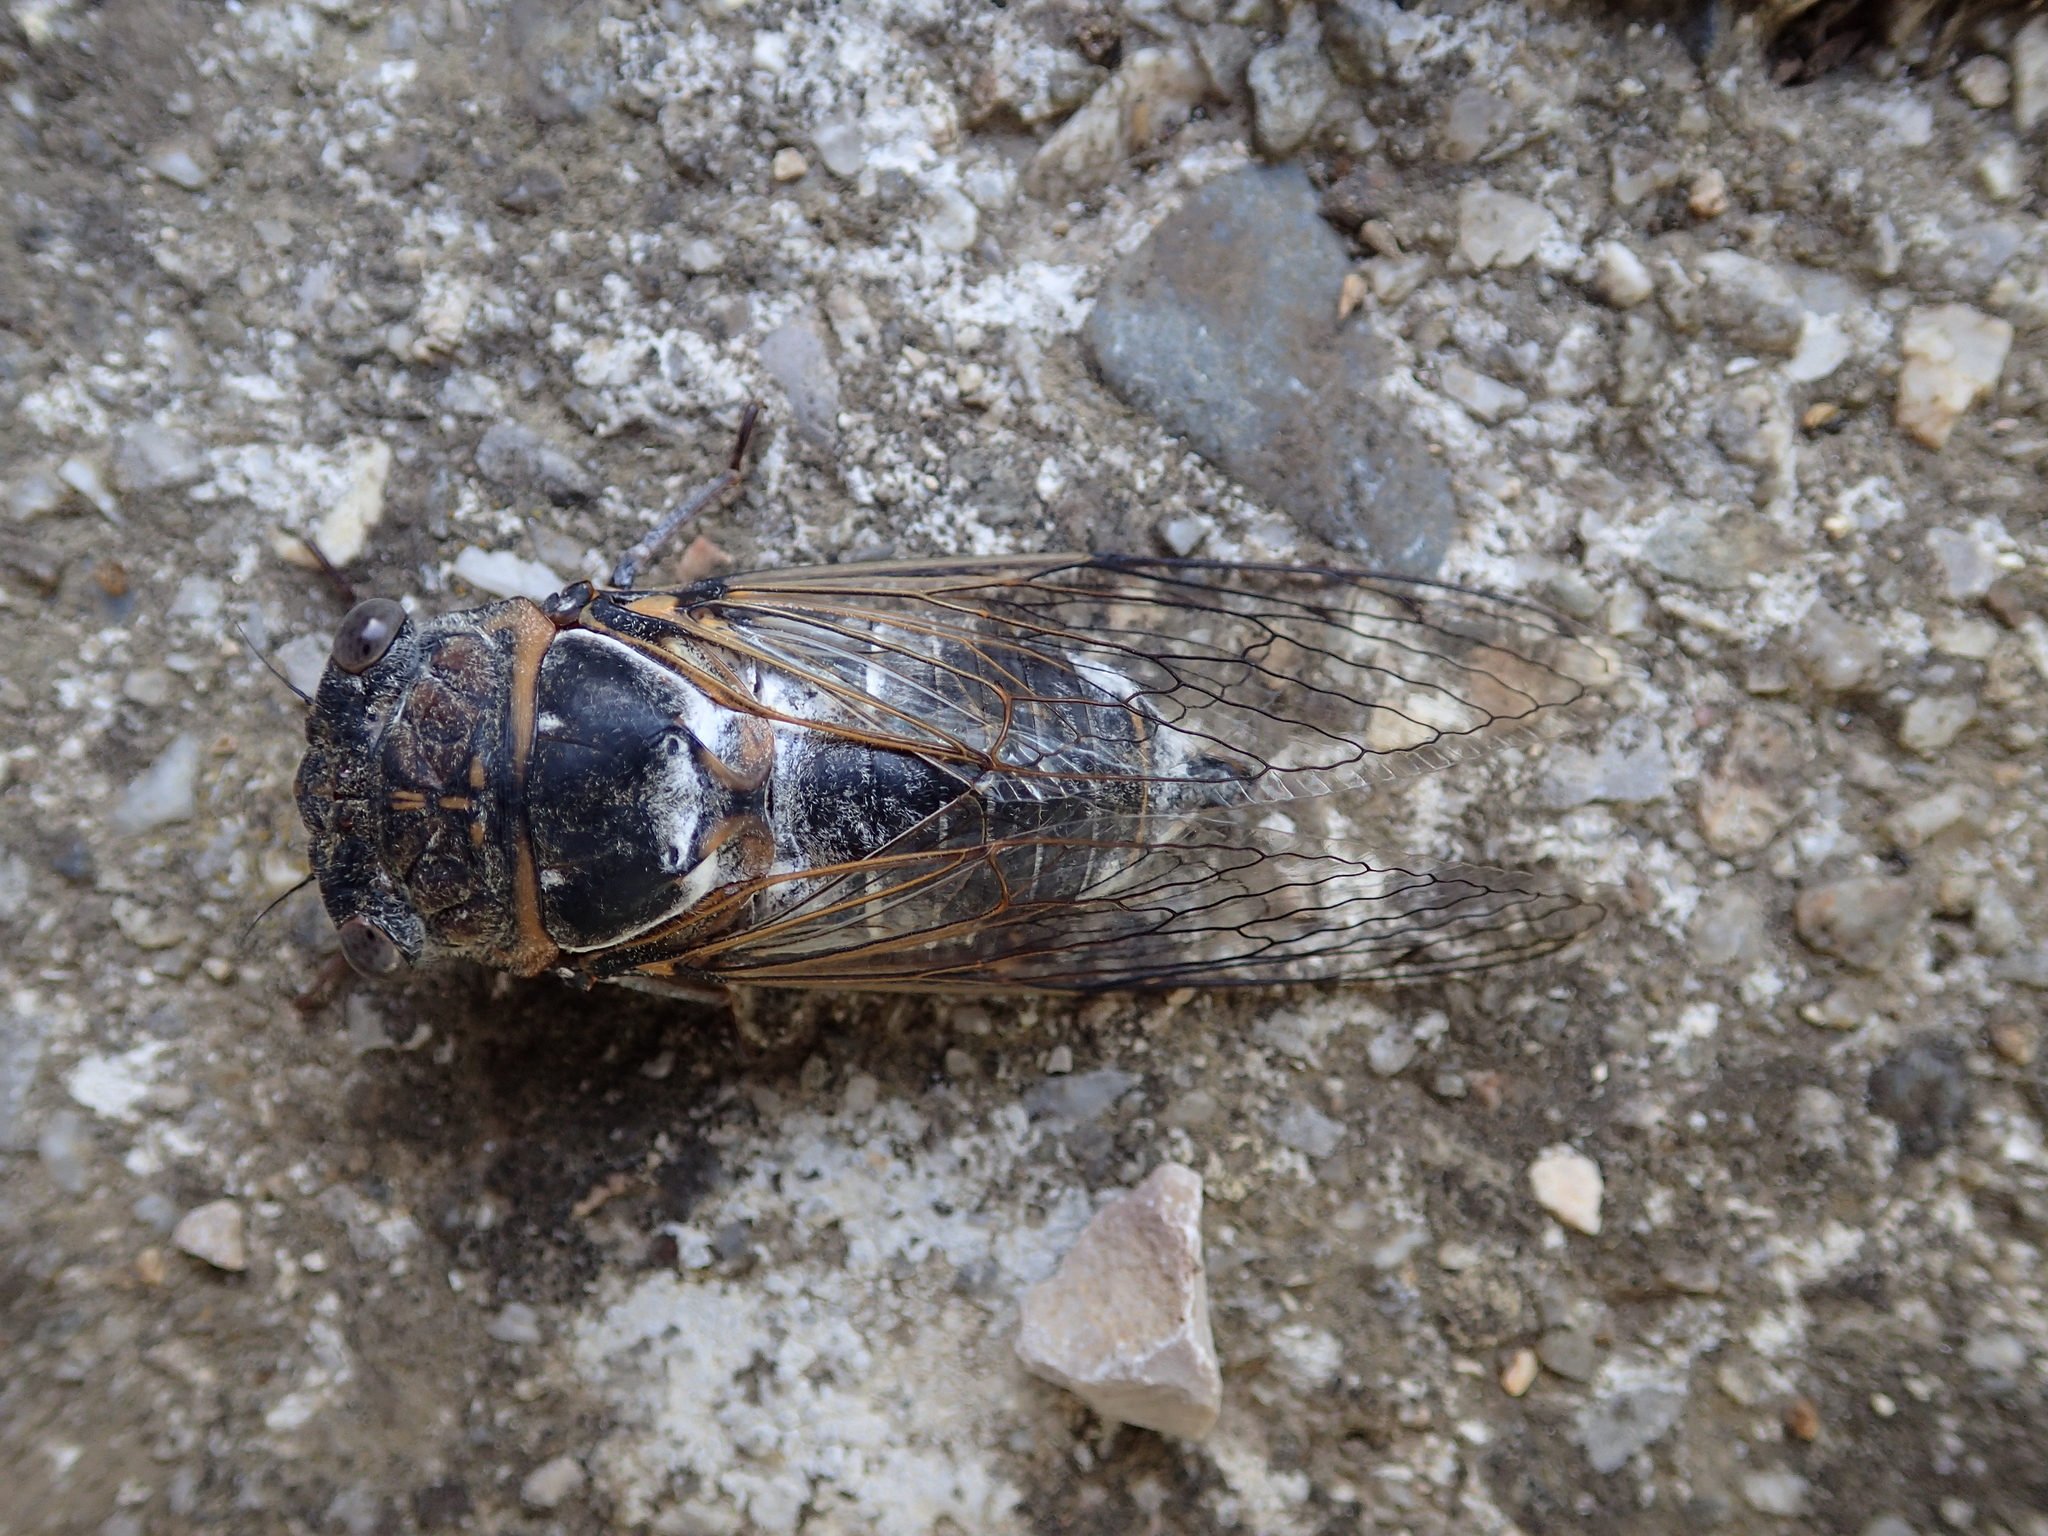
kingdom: Animalia
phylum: Arthropoda
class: Insecta
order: Hemiptera
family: Cicadidae
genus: Lyristes
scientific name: Lyristes plebejus
